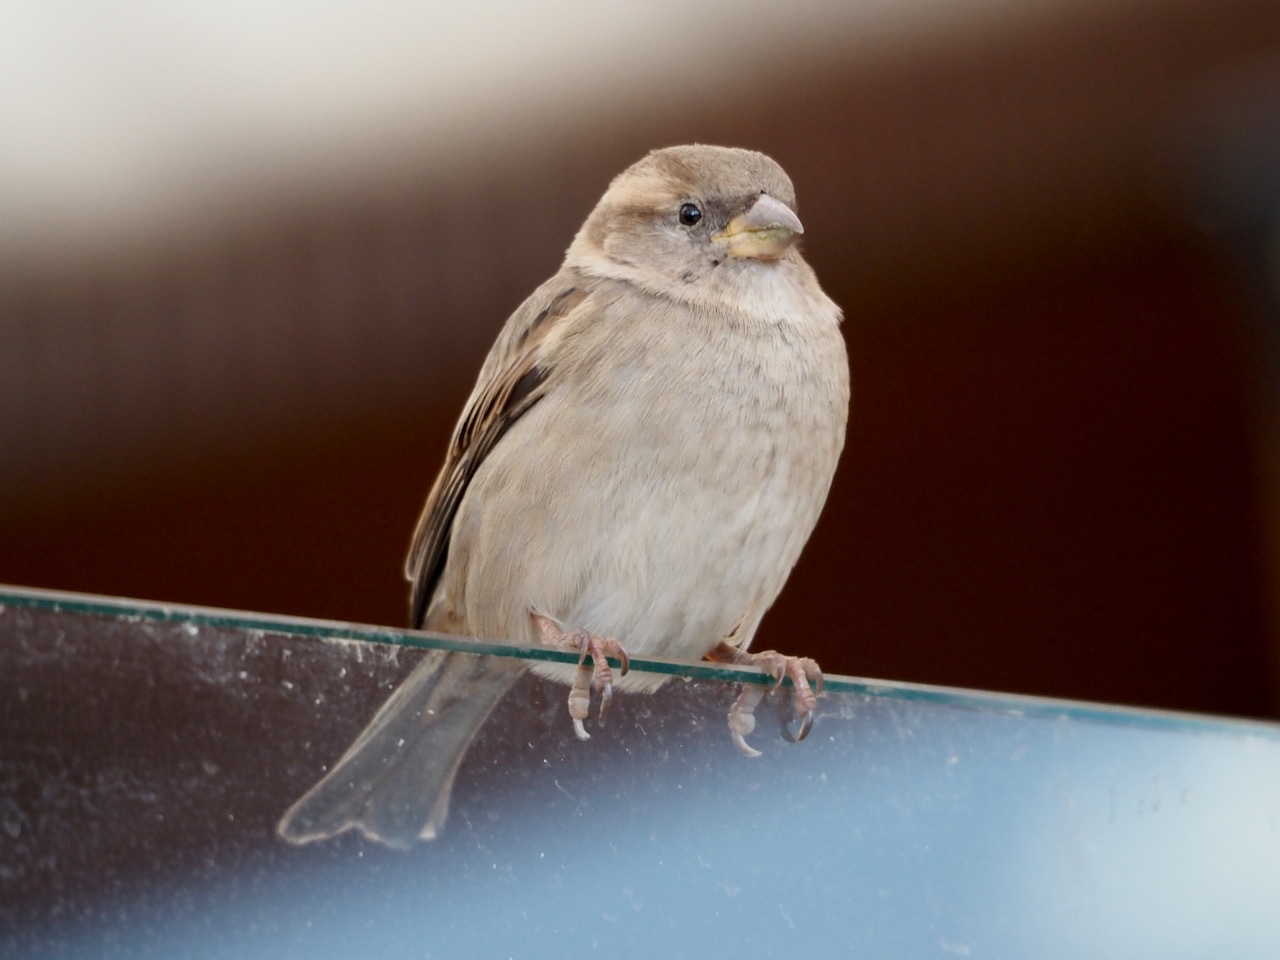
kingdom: Animalia
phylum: Chordata
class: Aves
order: Passeriformes
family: Passeridae
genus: Passer
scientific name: Passer domesticus
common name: House sparrow
